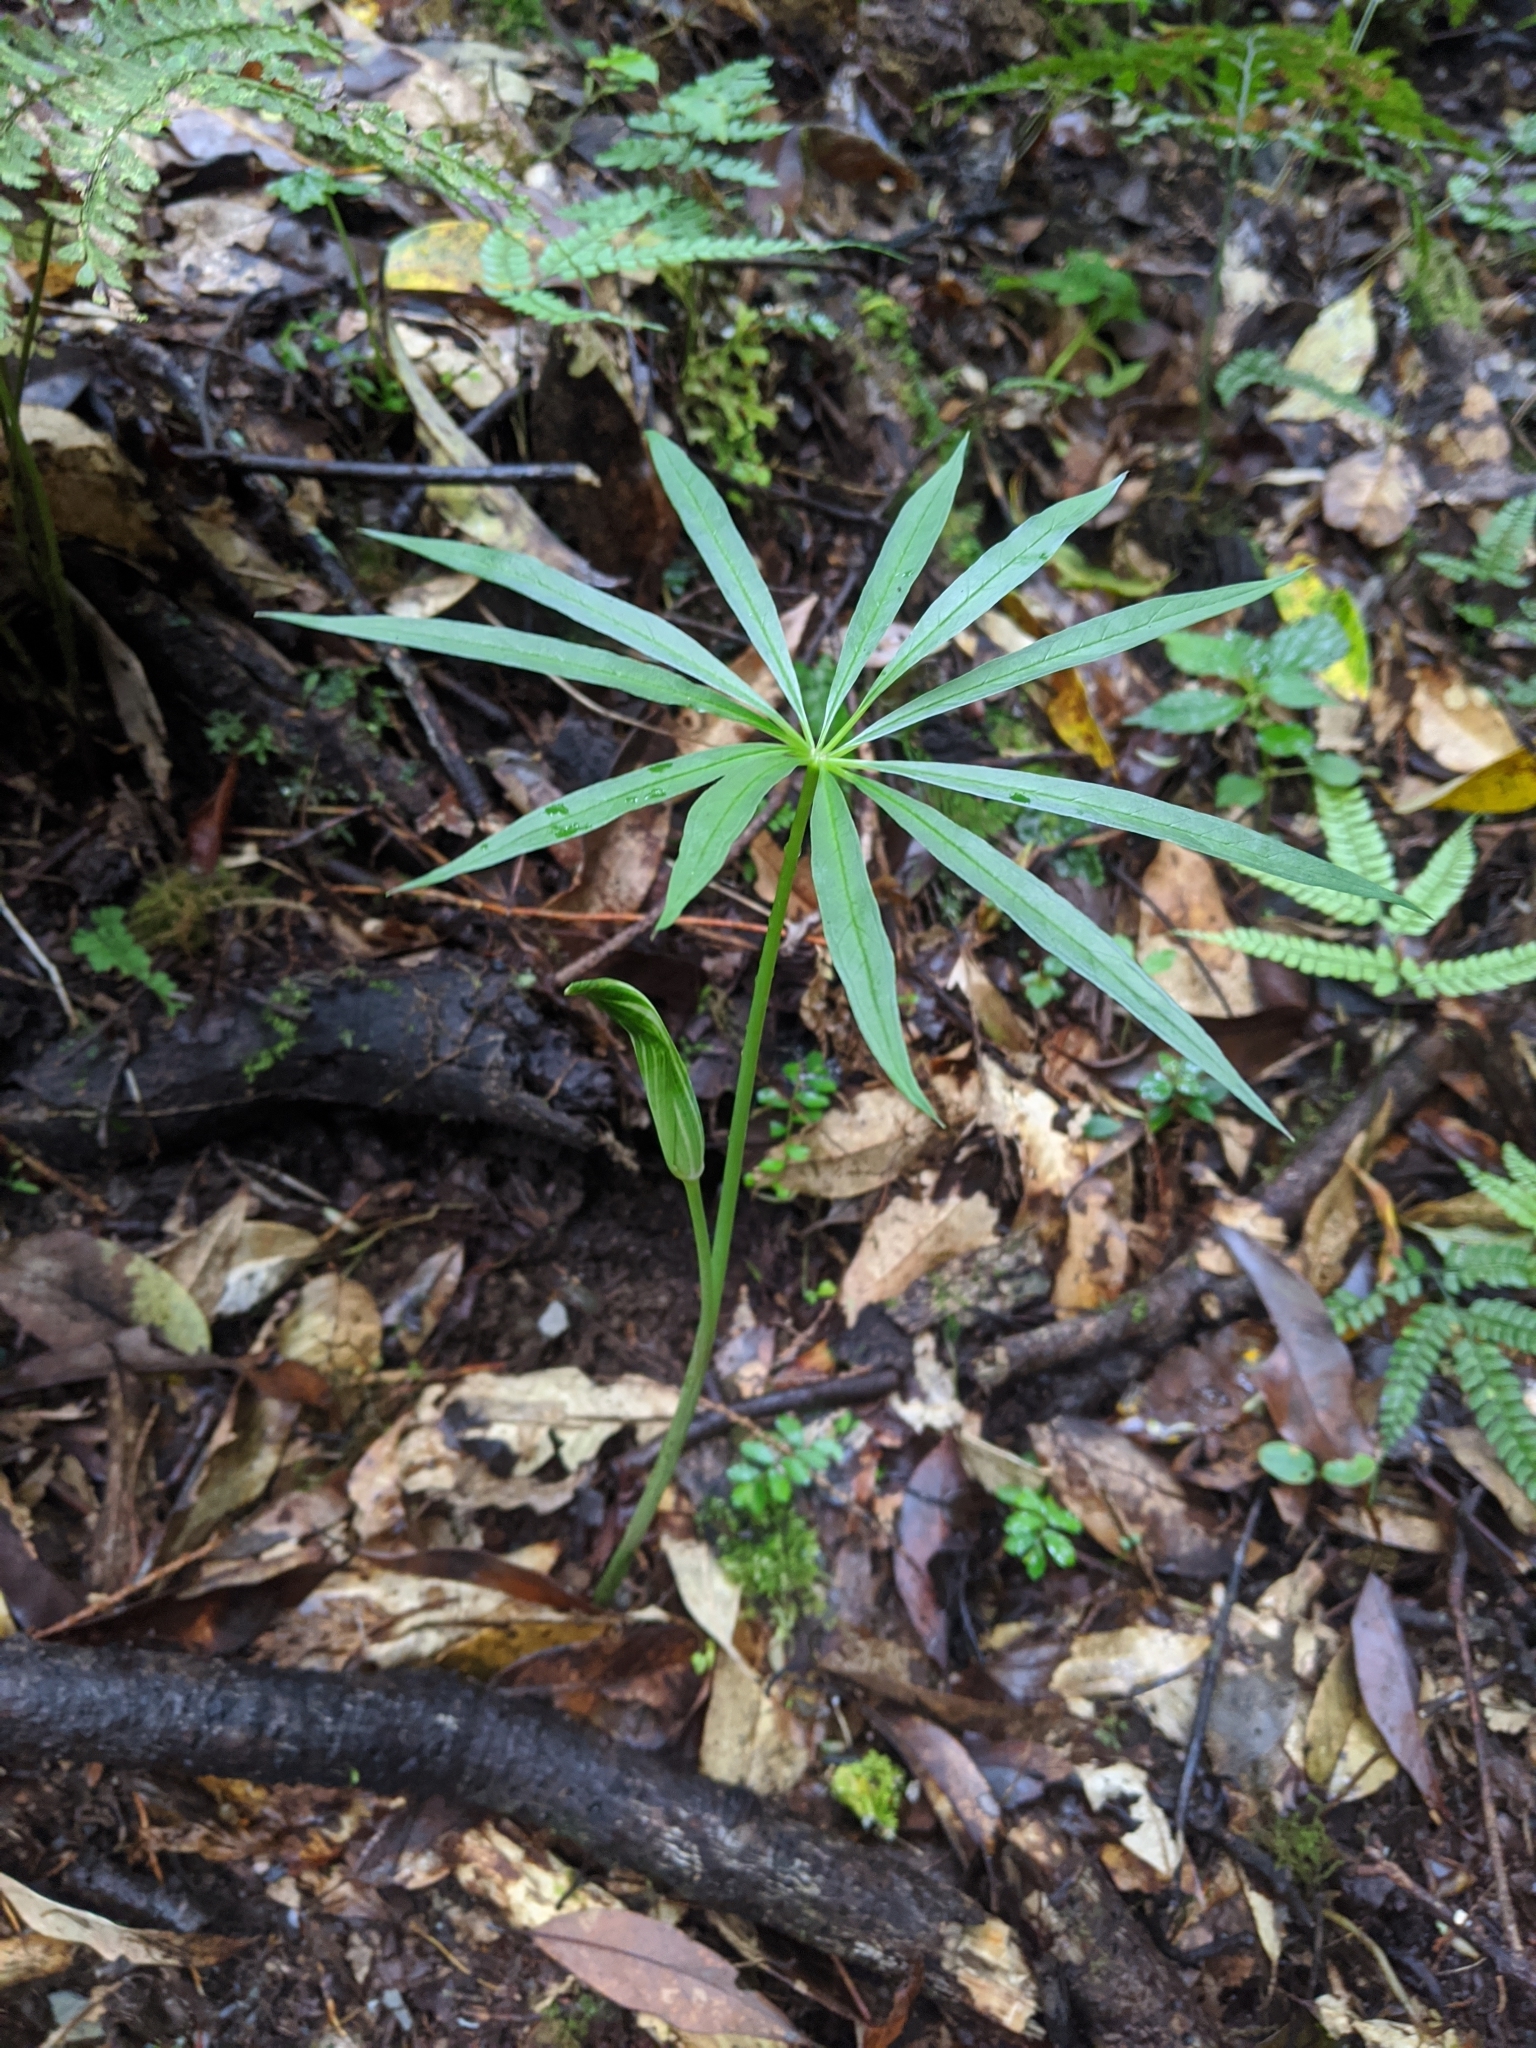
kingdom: Plantae
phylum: Tracheophyta
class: Liliopsida
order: Alismatales
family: Araceae
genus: Arisaema
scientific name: Arisaema consanguineum
